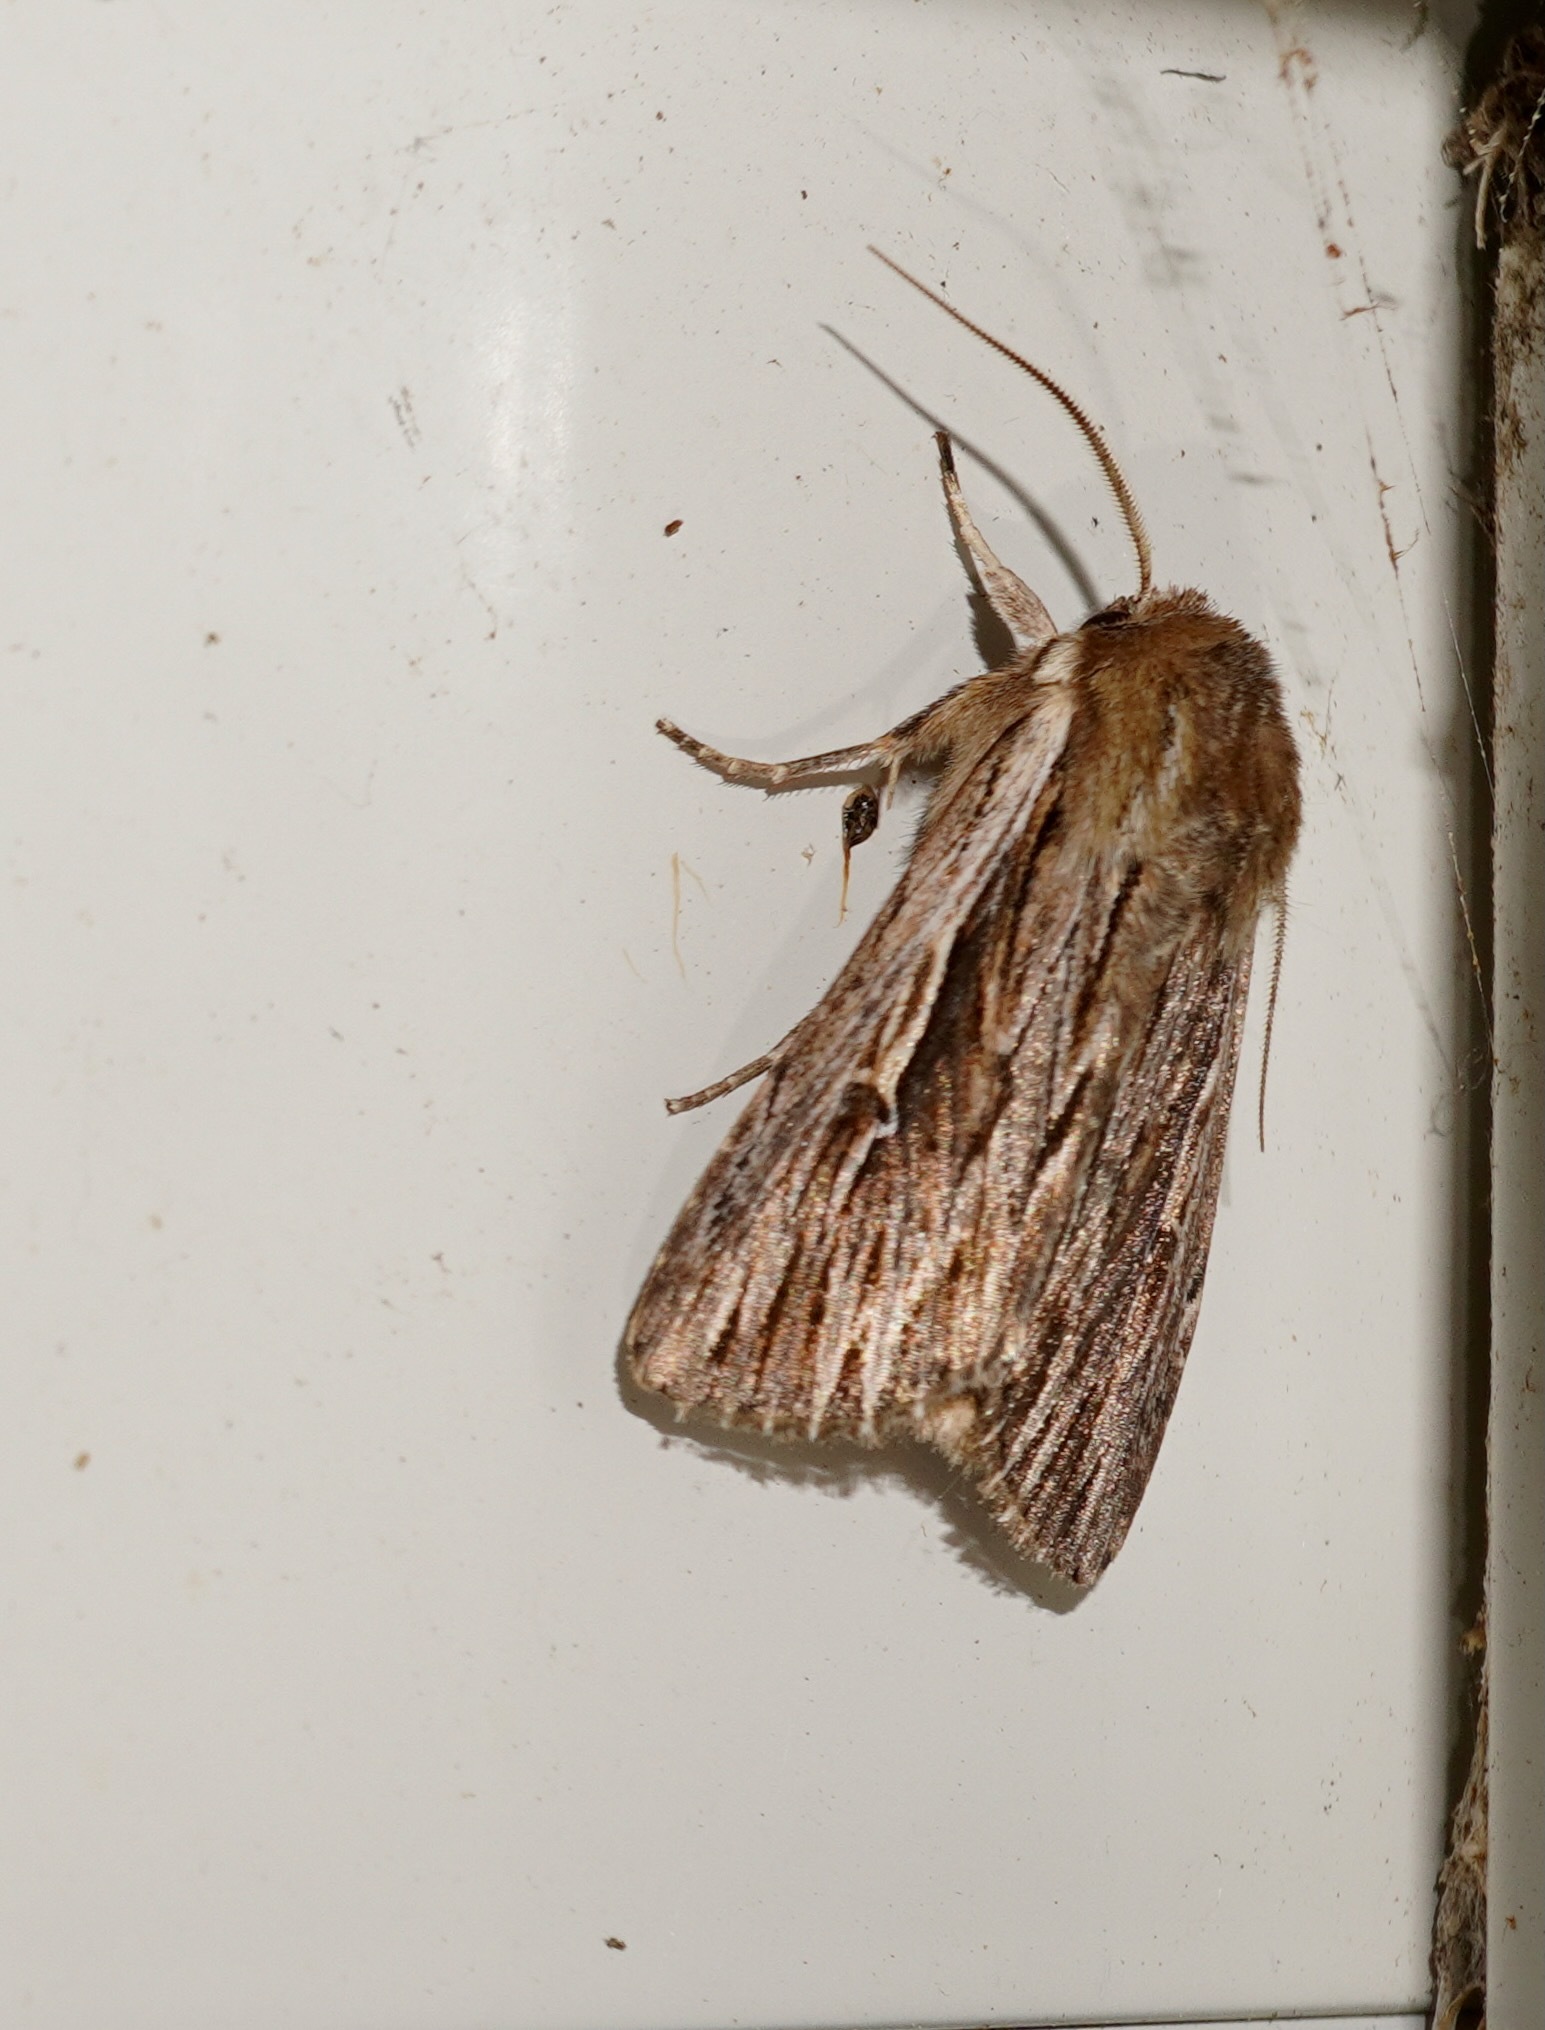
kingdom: Animalia
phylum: Arthropoda
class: Insecta
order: Lepidoptera
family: Noctuidae
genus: Persectania
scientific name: Persectania aversa
